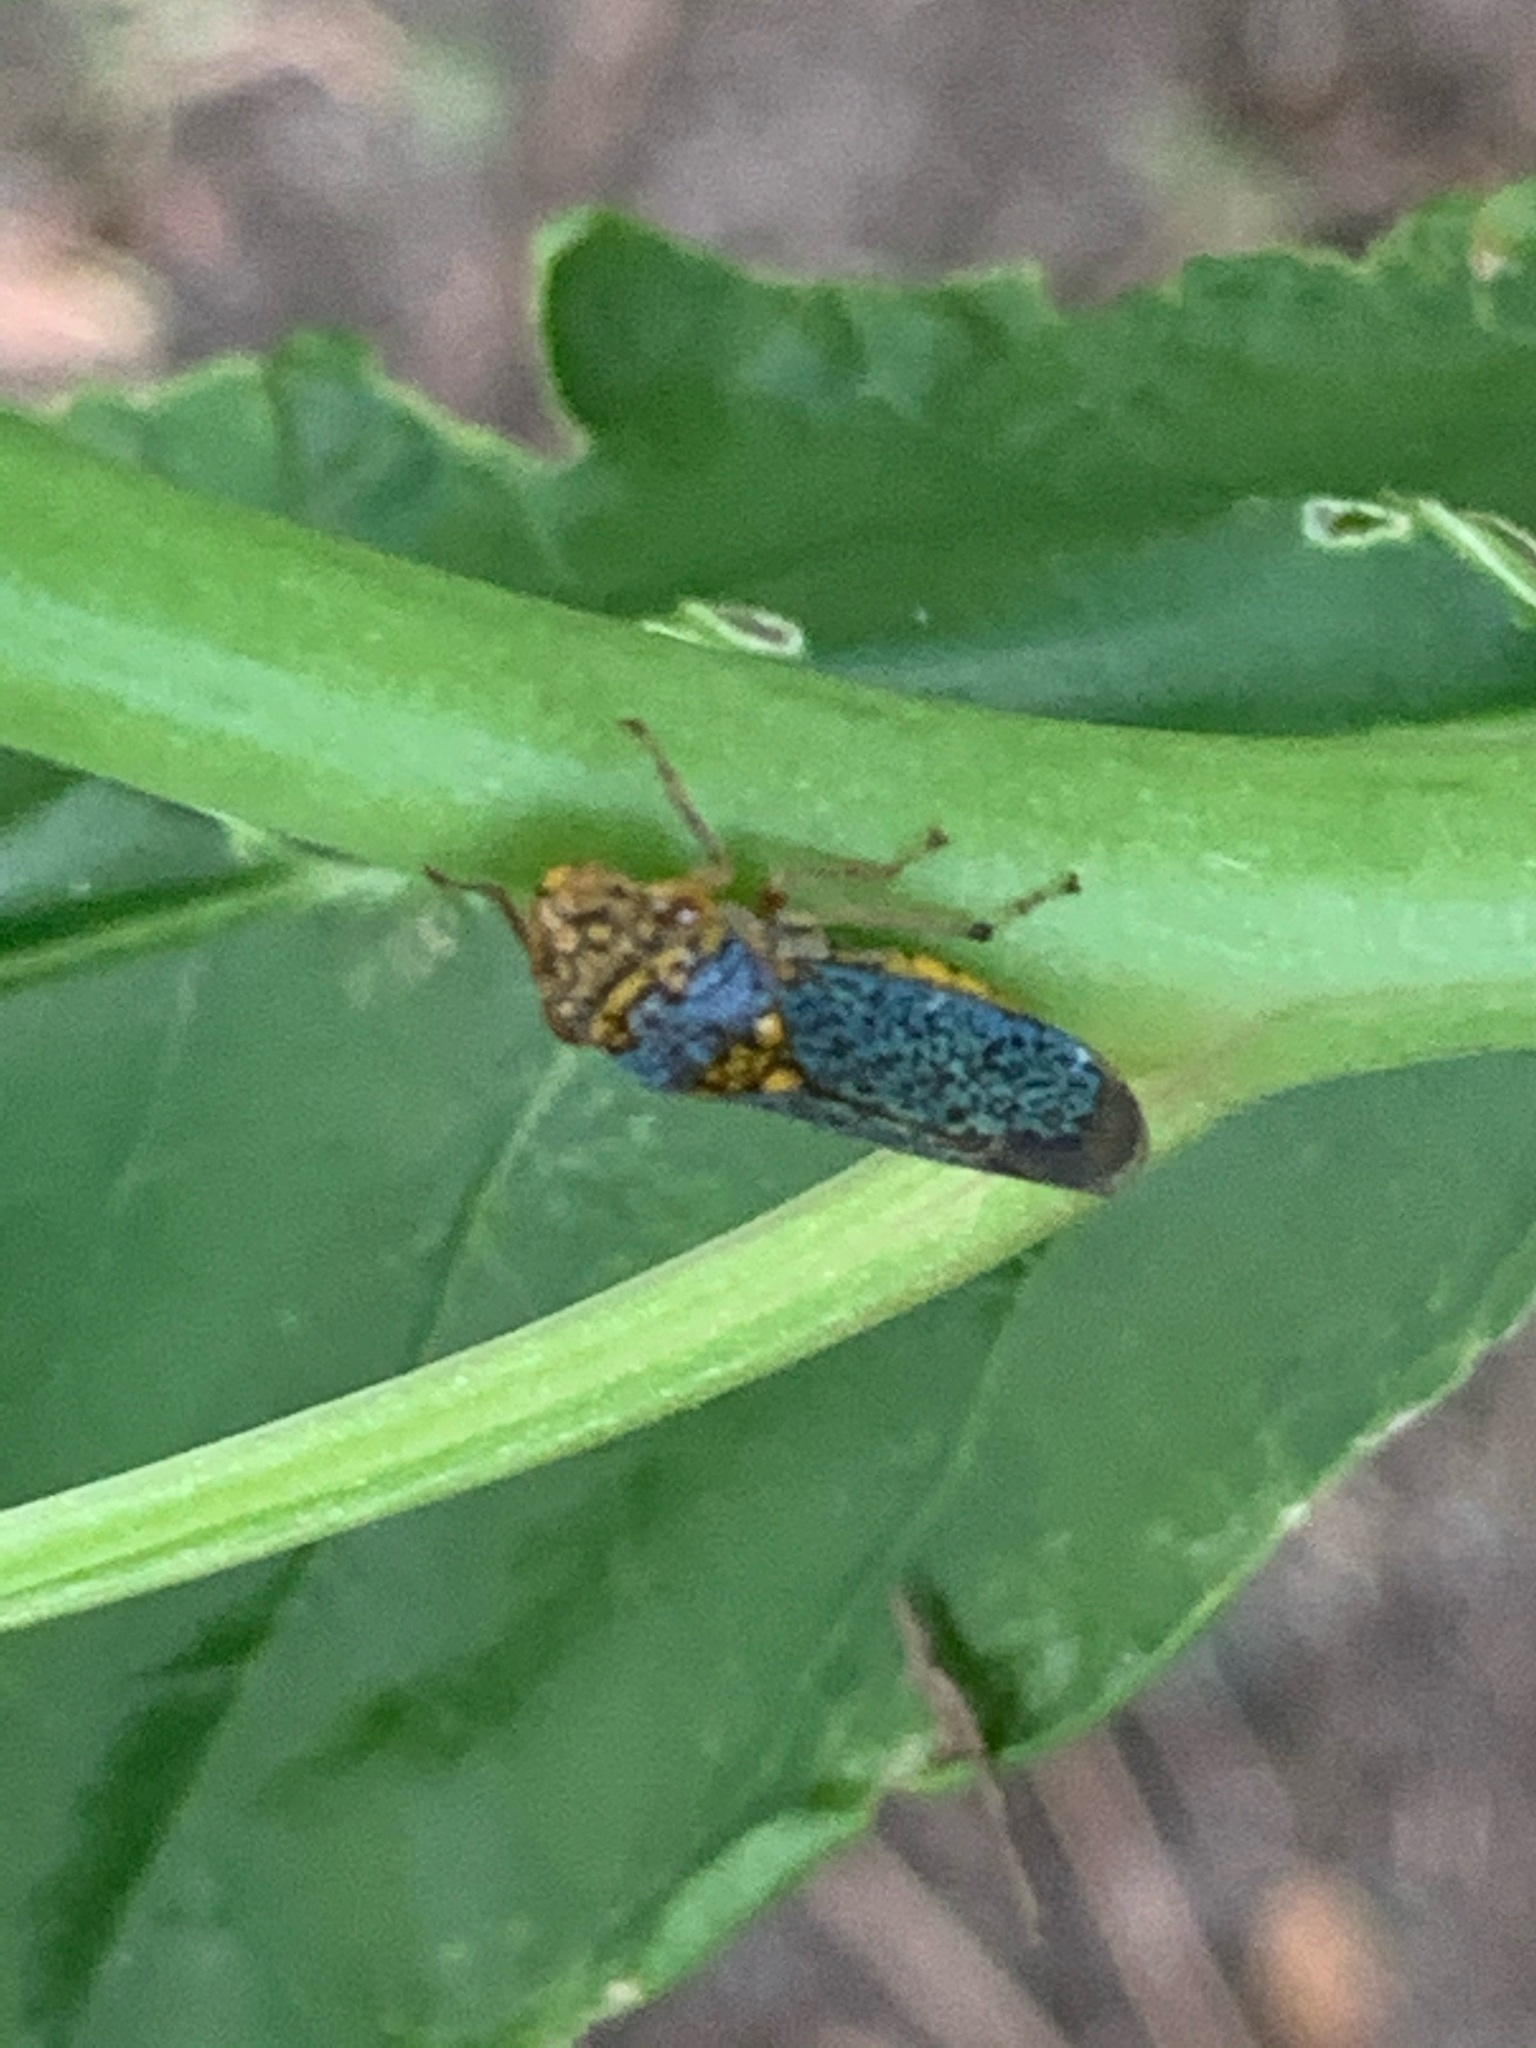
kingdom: Animalia
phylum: Arthropoda
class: Insecta
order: Hemiptera
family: Cicadellidae
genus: Oncometopia
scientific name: Oncometopia orbona
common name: Broad-headed sharpshooter
